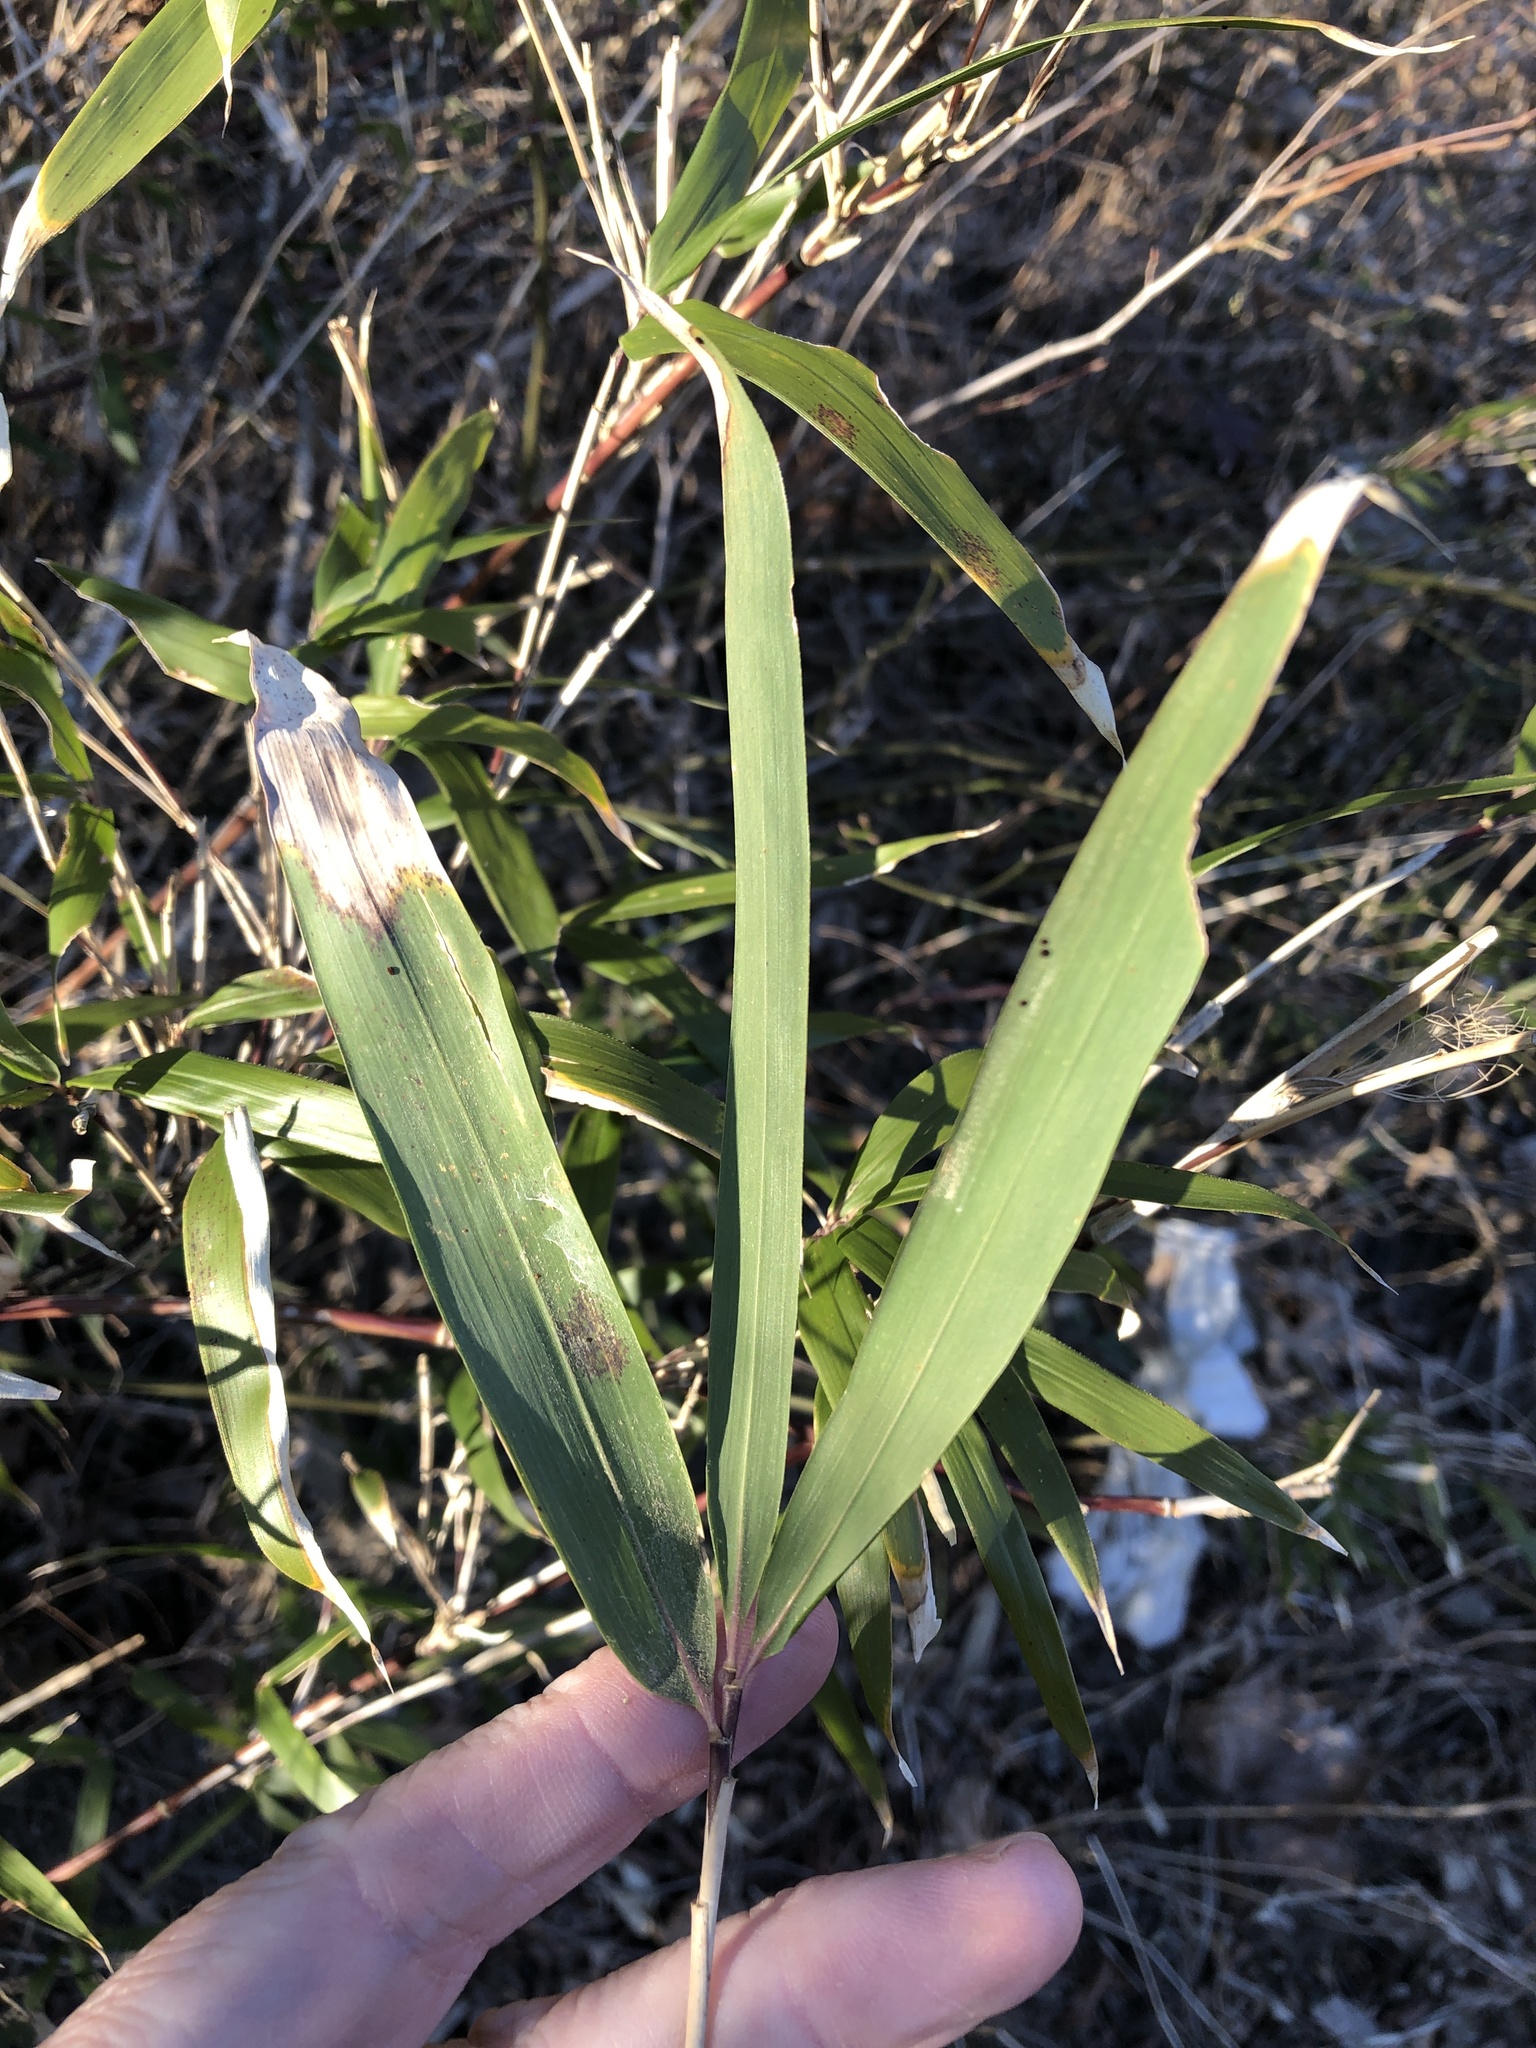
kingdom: Plantae
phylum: Tracheophyta
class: Liliopsida
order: Poales
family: Poaceae
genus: Arundinaria
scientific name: Arundinaria gigantea
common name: Giant cane
